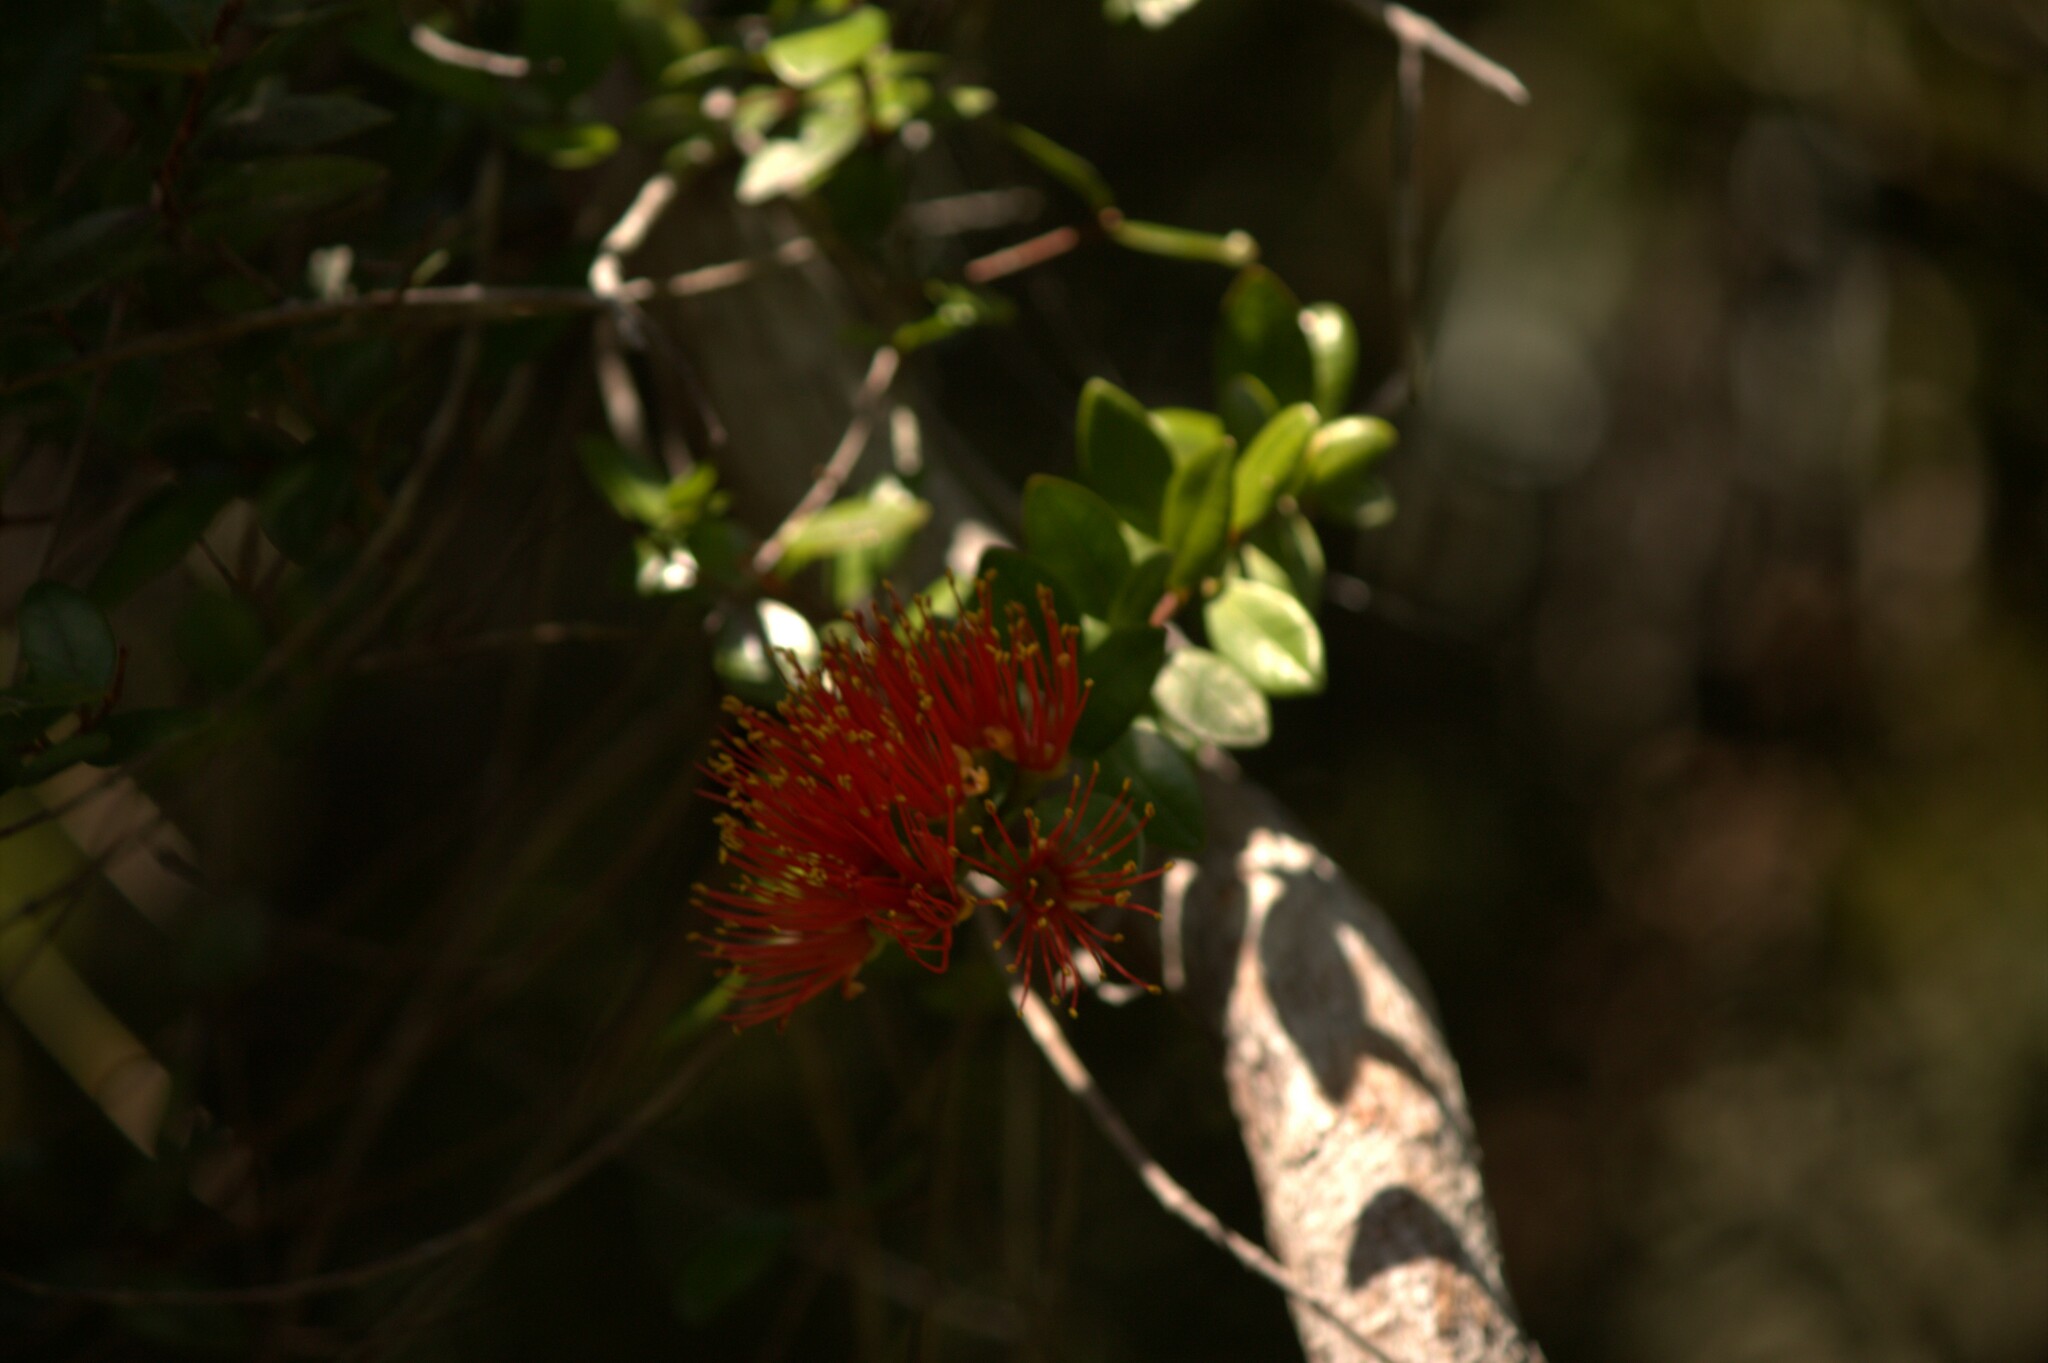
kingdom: Plantae
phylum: Tracheophyta
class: Magnoliopsida
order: Myrtales
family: Myrtaceae
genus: Metrosideros
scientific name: Metrosideros fulgens
